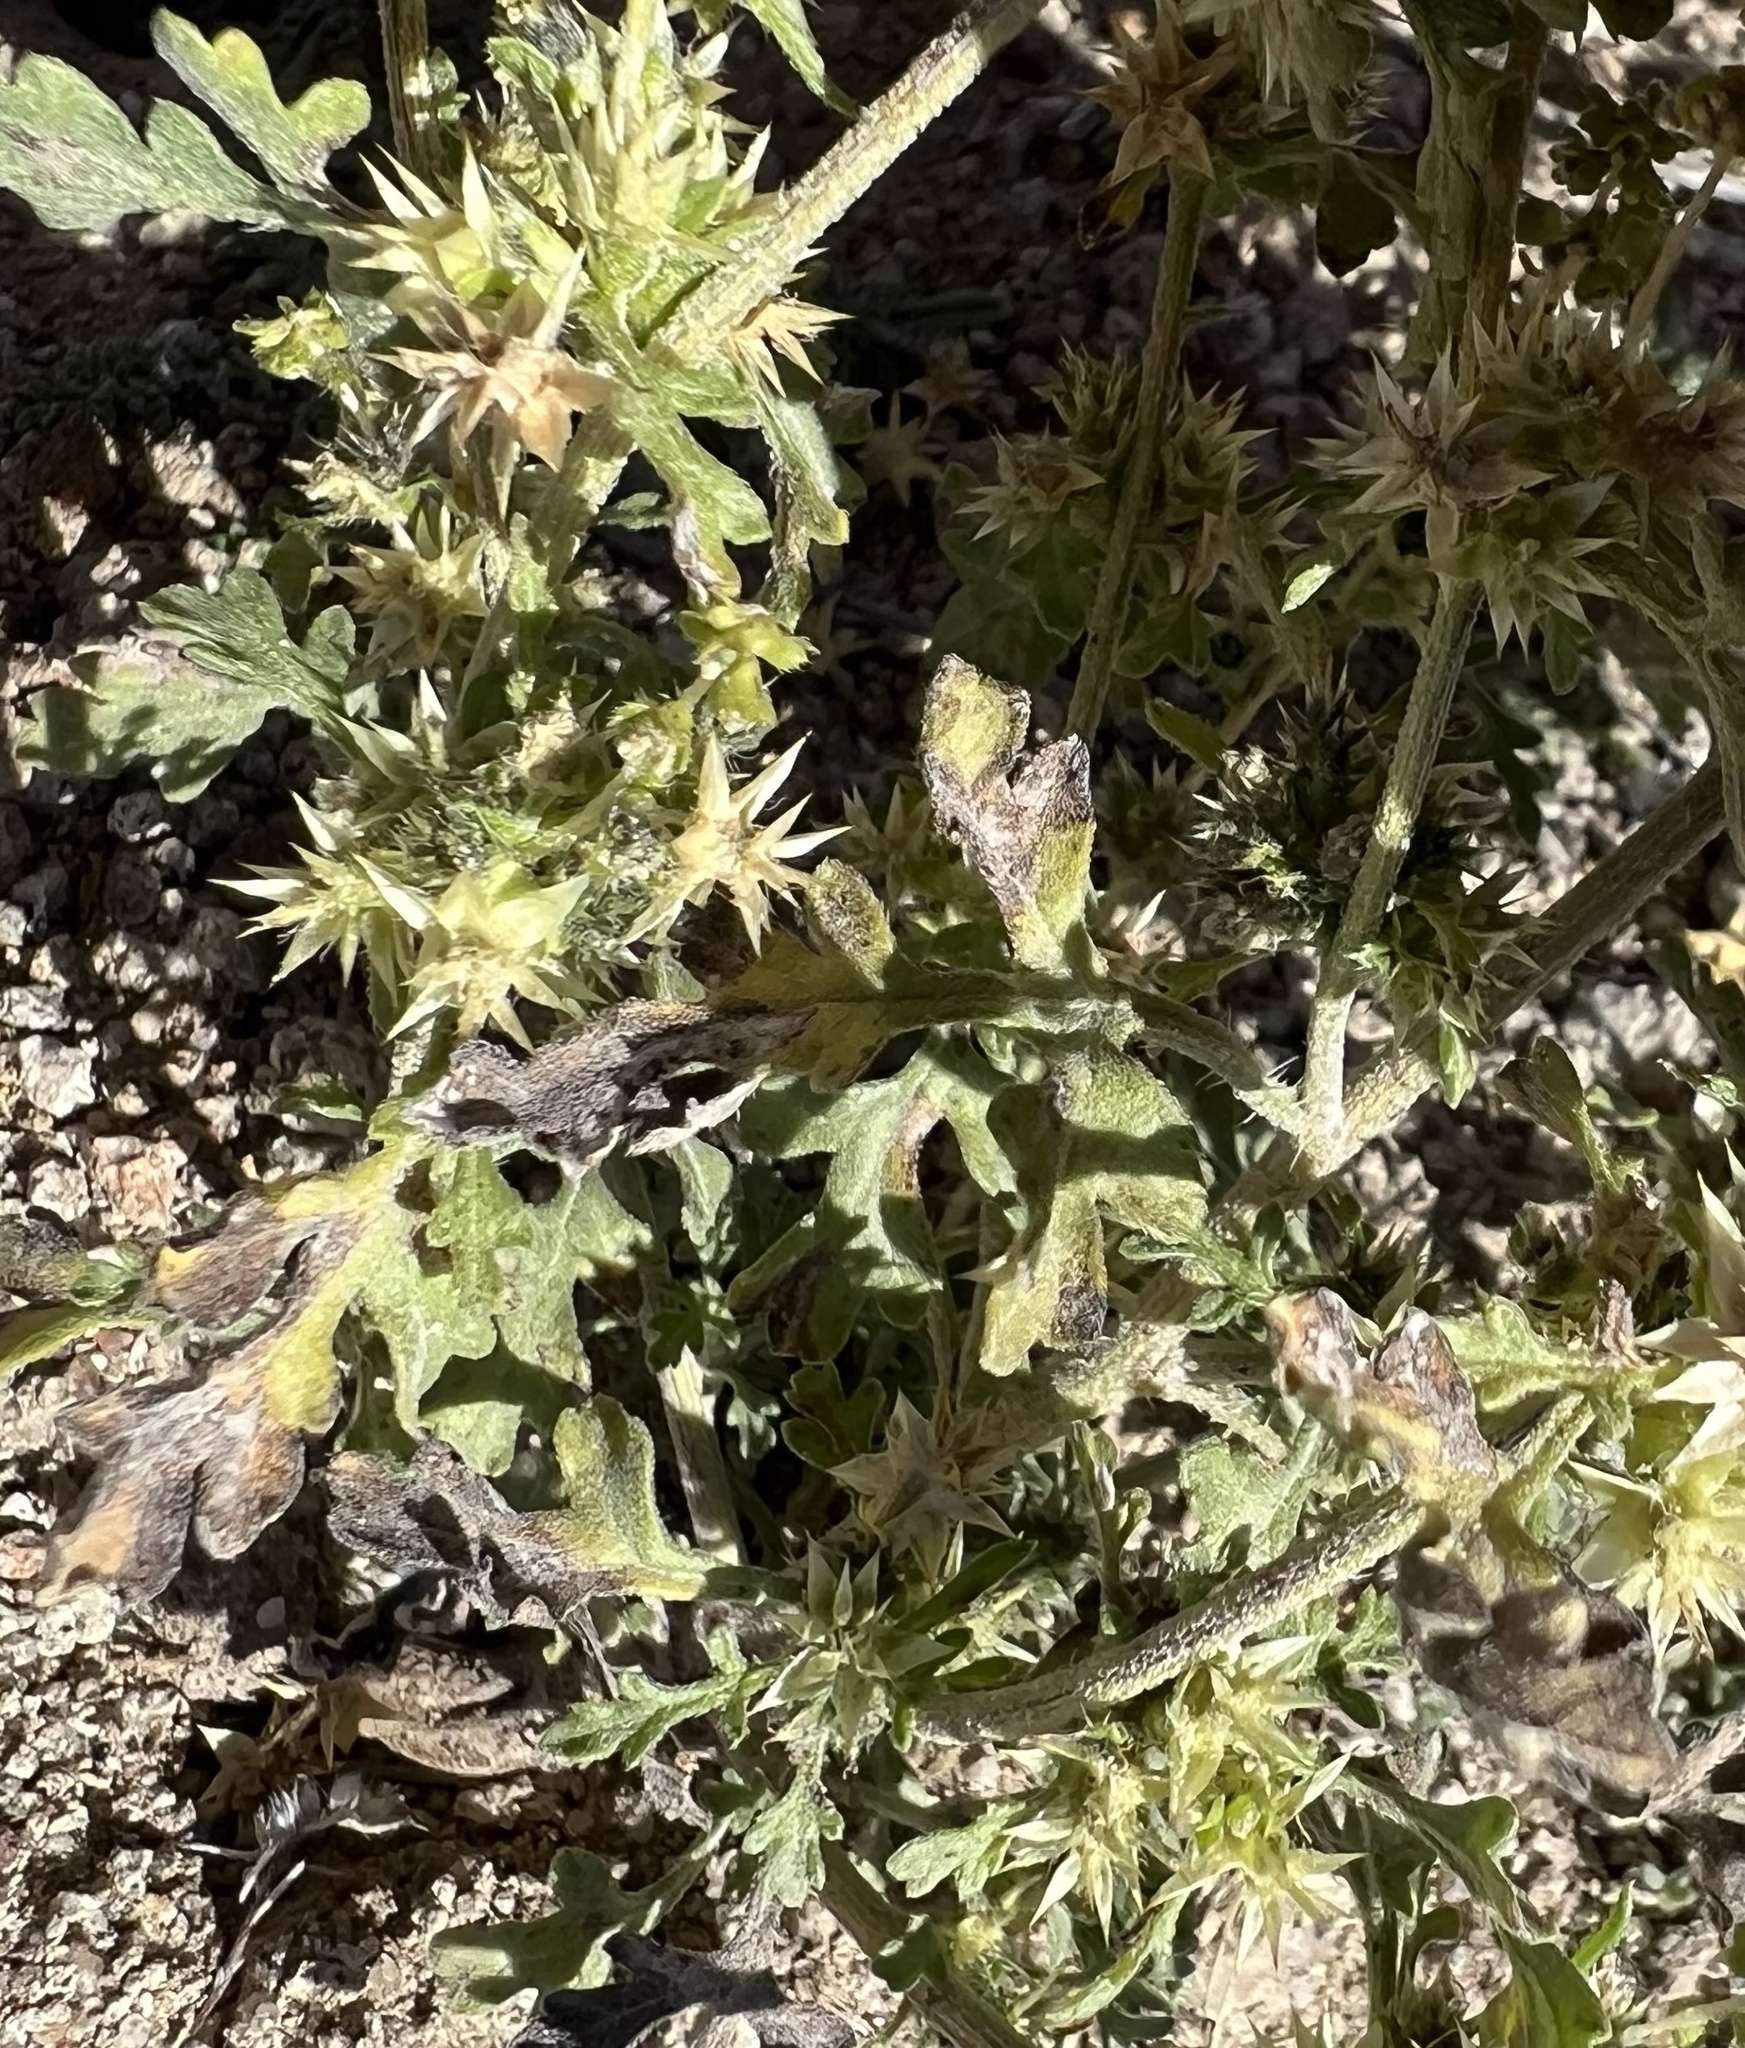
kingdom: Plantae
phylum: Tracheophyta
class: Magnoliopsida
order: Asterales
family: Asteraceae
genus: Ambrosia
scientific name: Ambrosia acanthicarpa
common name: Hooker's bur ragweed
